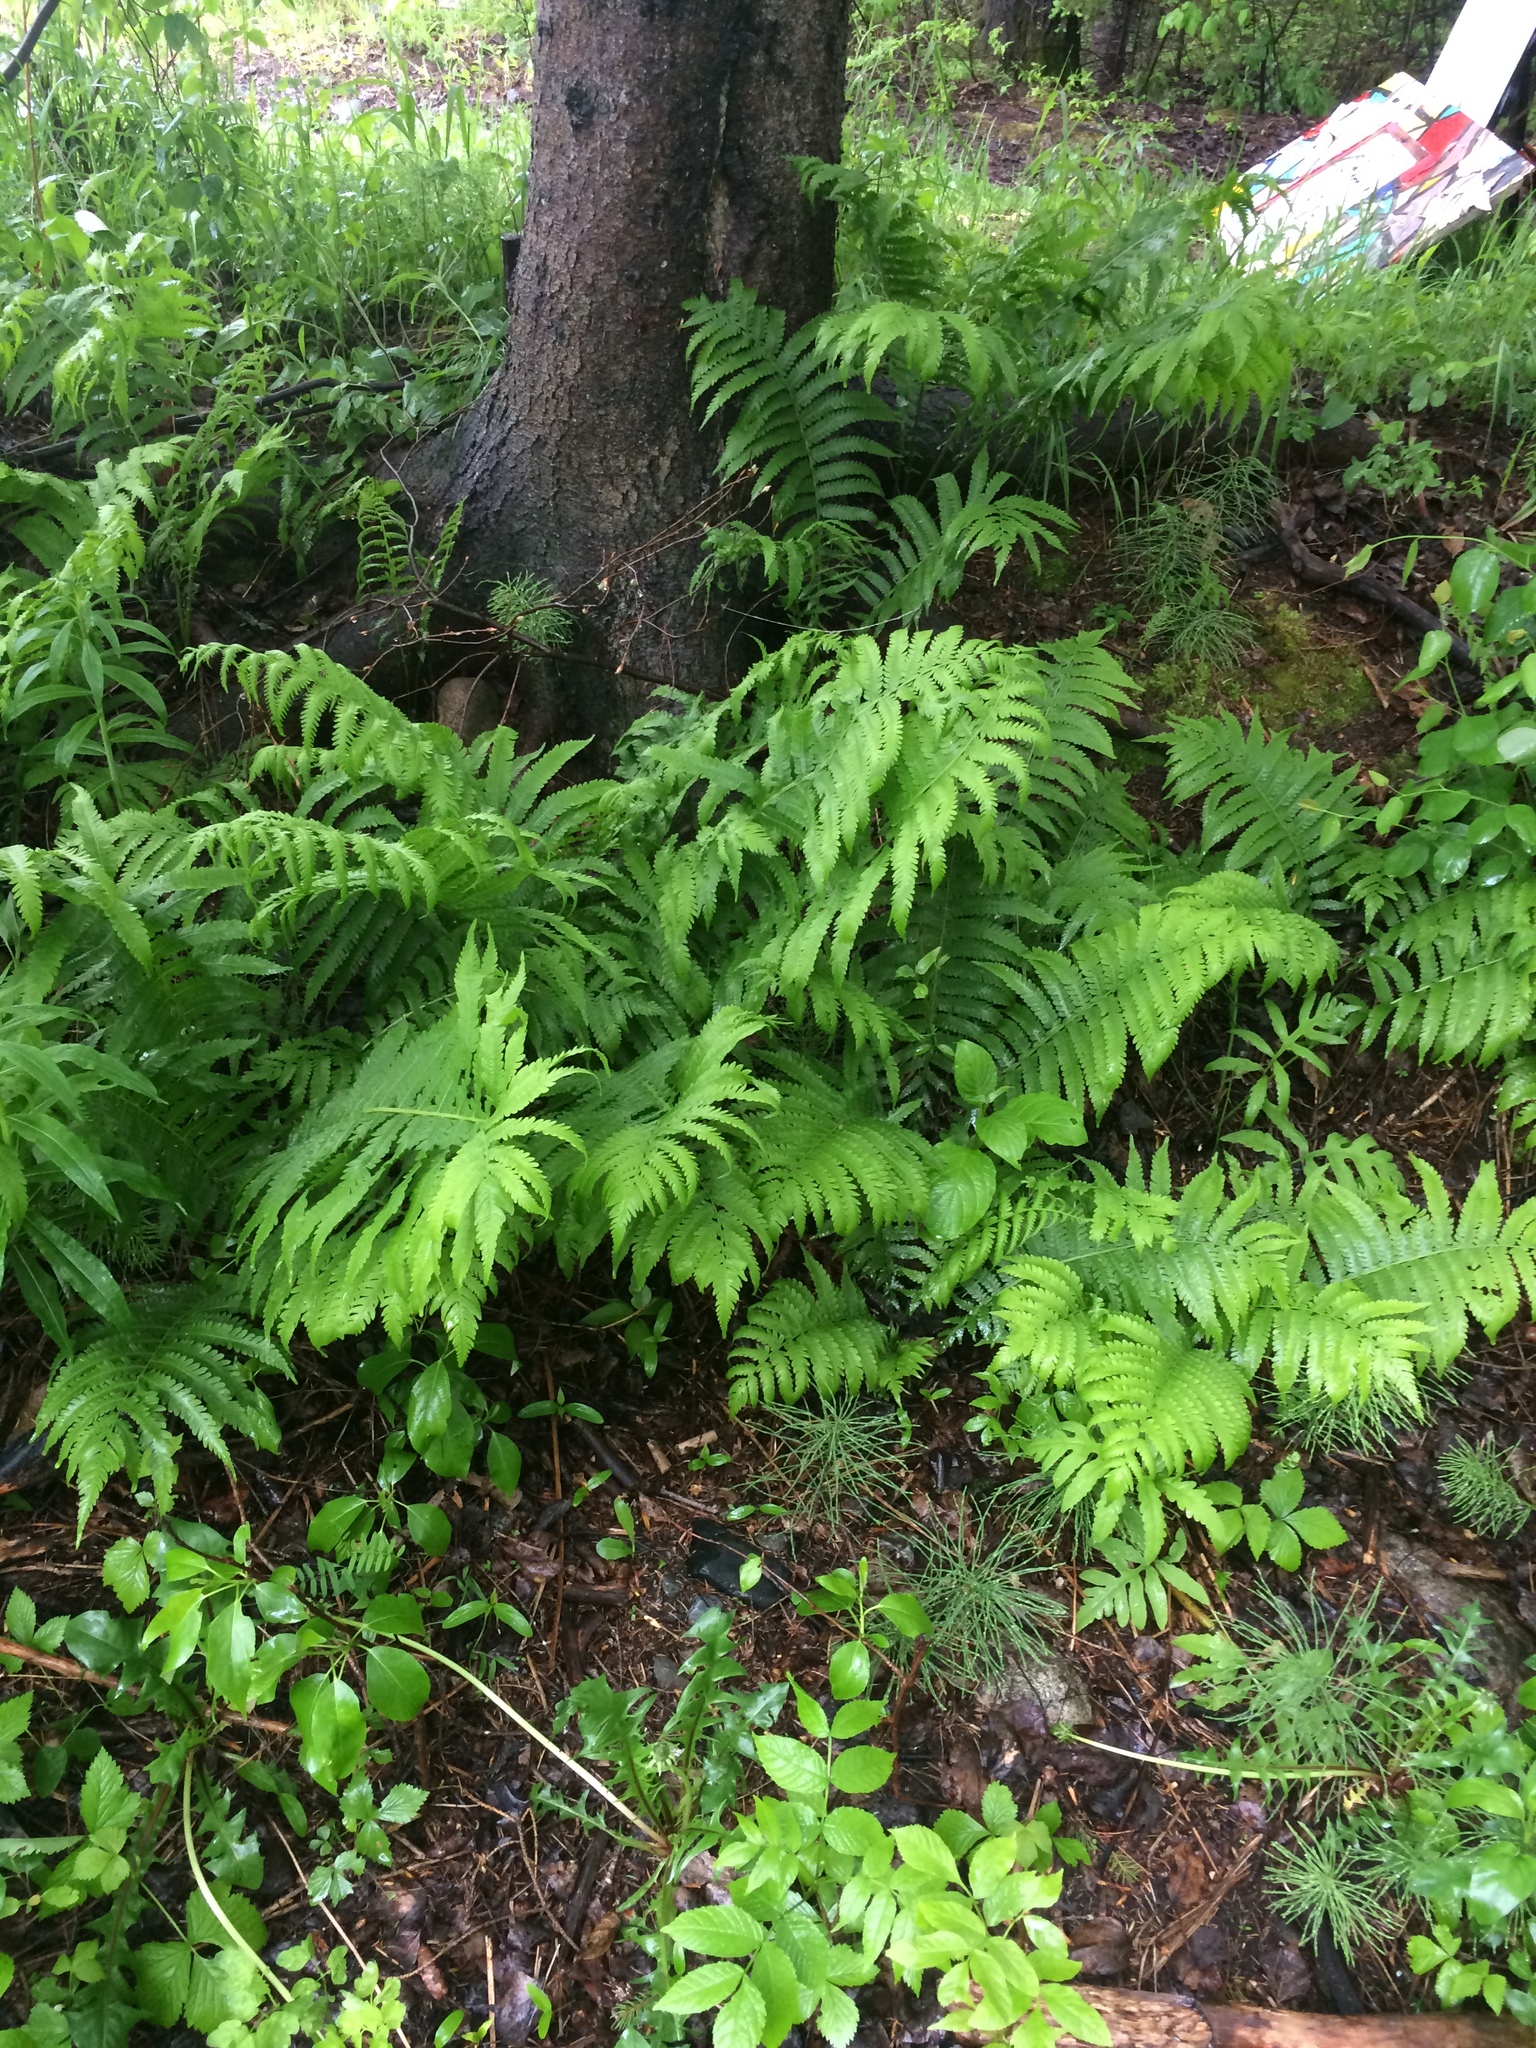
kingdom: Plantae
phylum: Tracheophyta
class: Polypodiopsida
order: Polypodiales
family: Onocleaceae
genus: Matteuccia
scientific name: Matteuccia struthiopteris
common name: Ostrich fern
